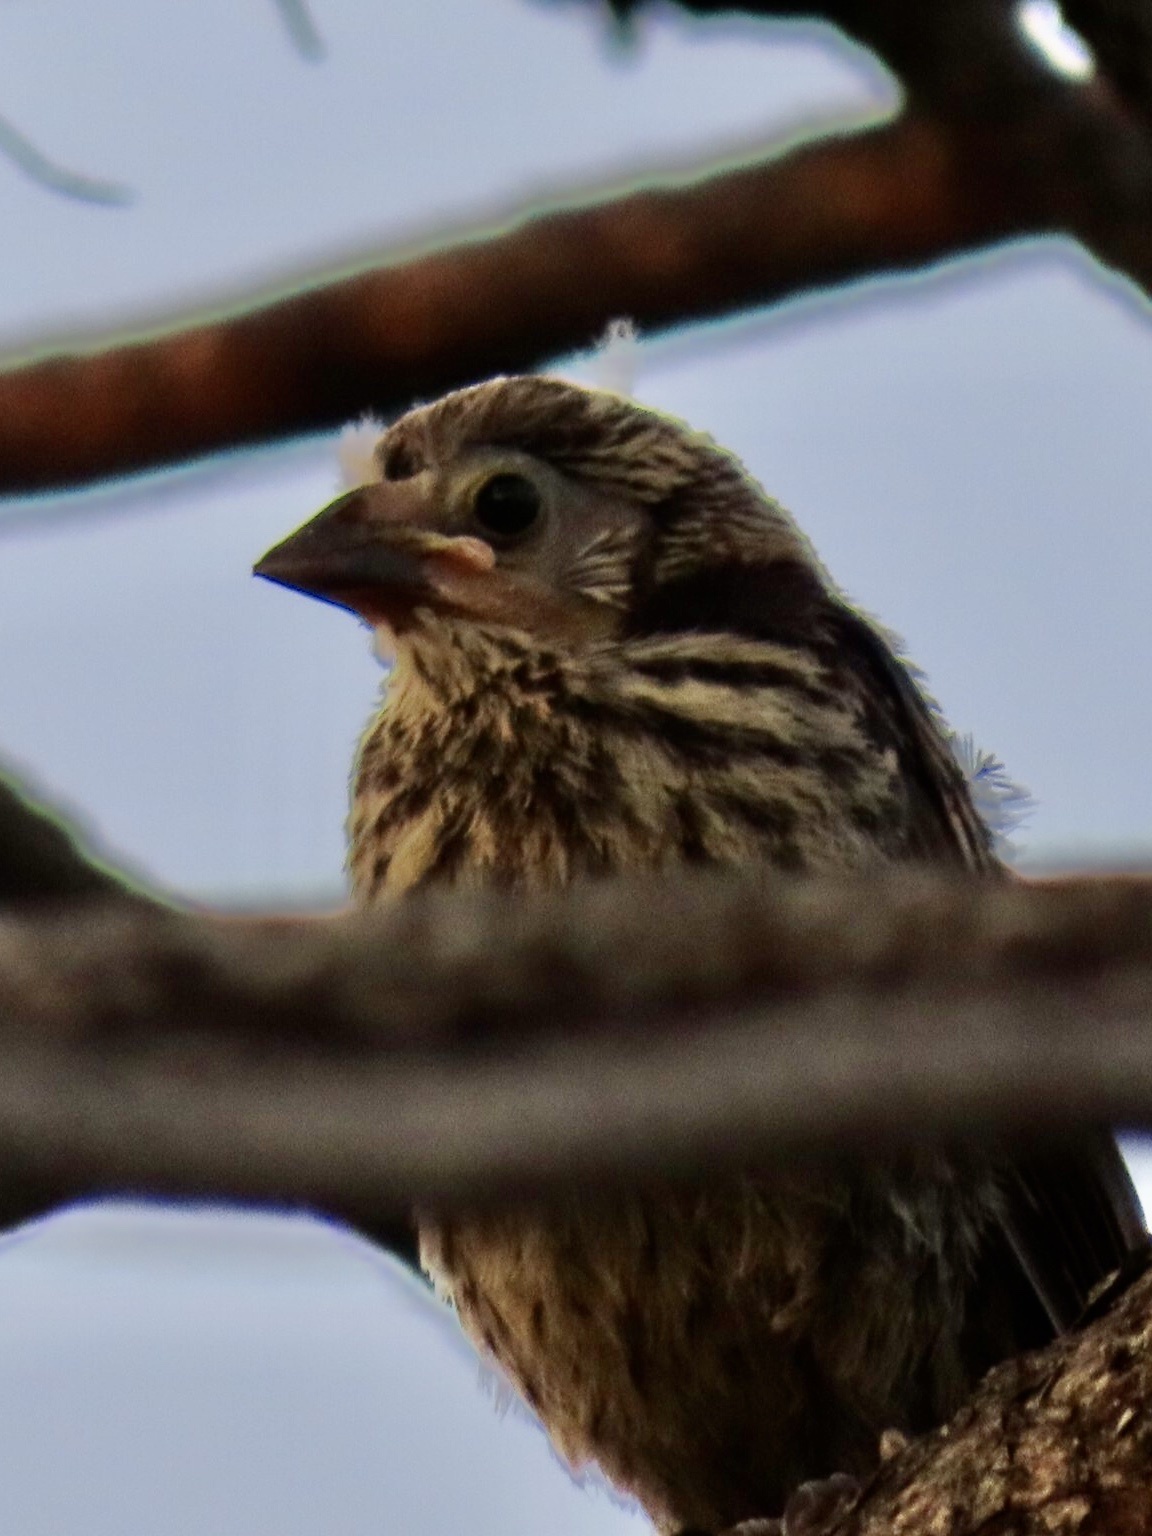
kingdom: Animalia
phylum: Chordata
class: Aves
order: Passeriformes
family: Fringillidae
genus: Haemorhous
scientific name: Haemorhous mexicanus
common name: House finch
